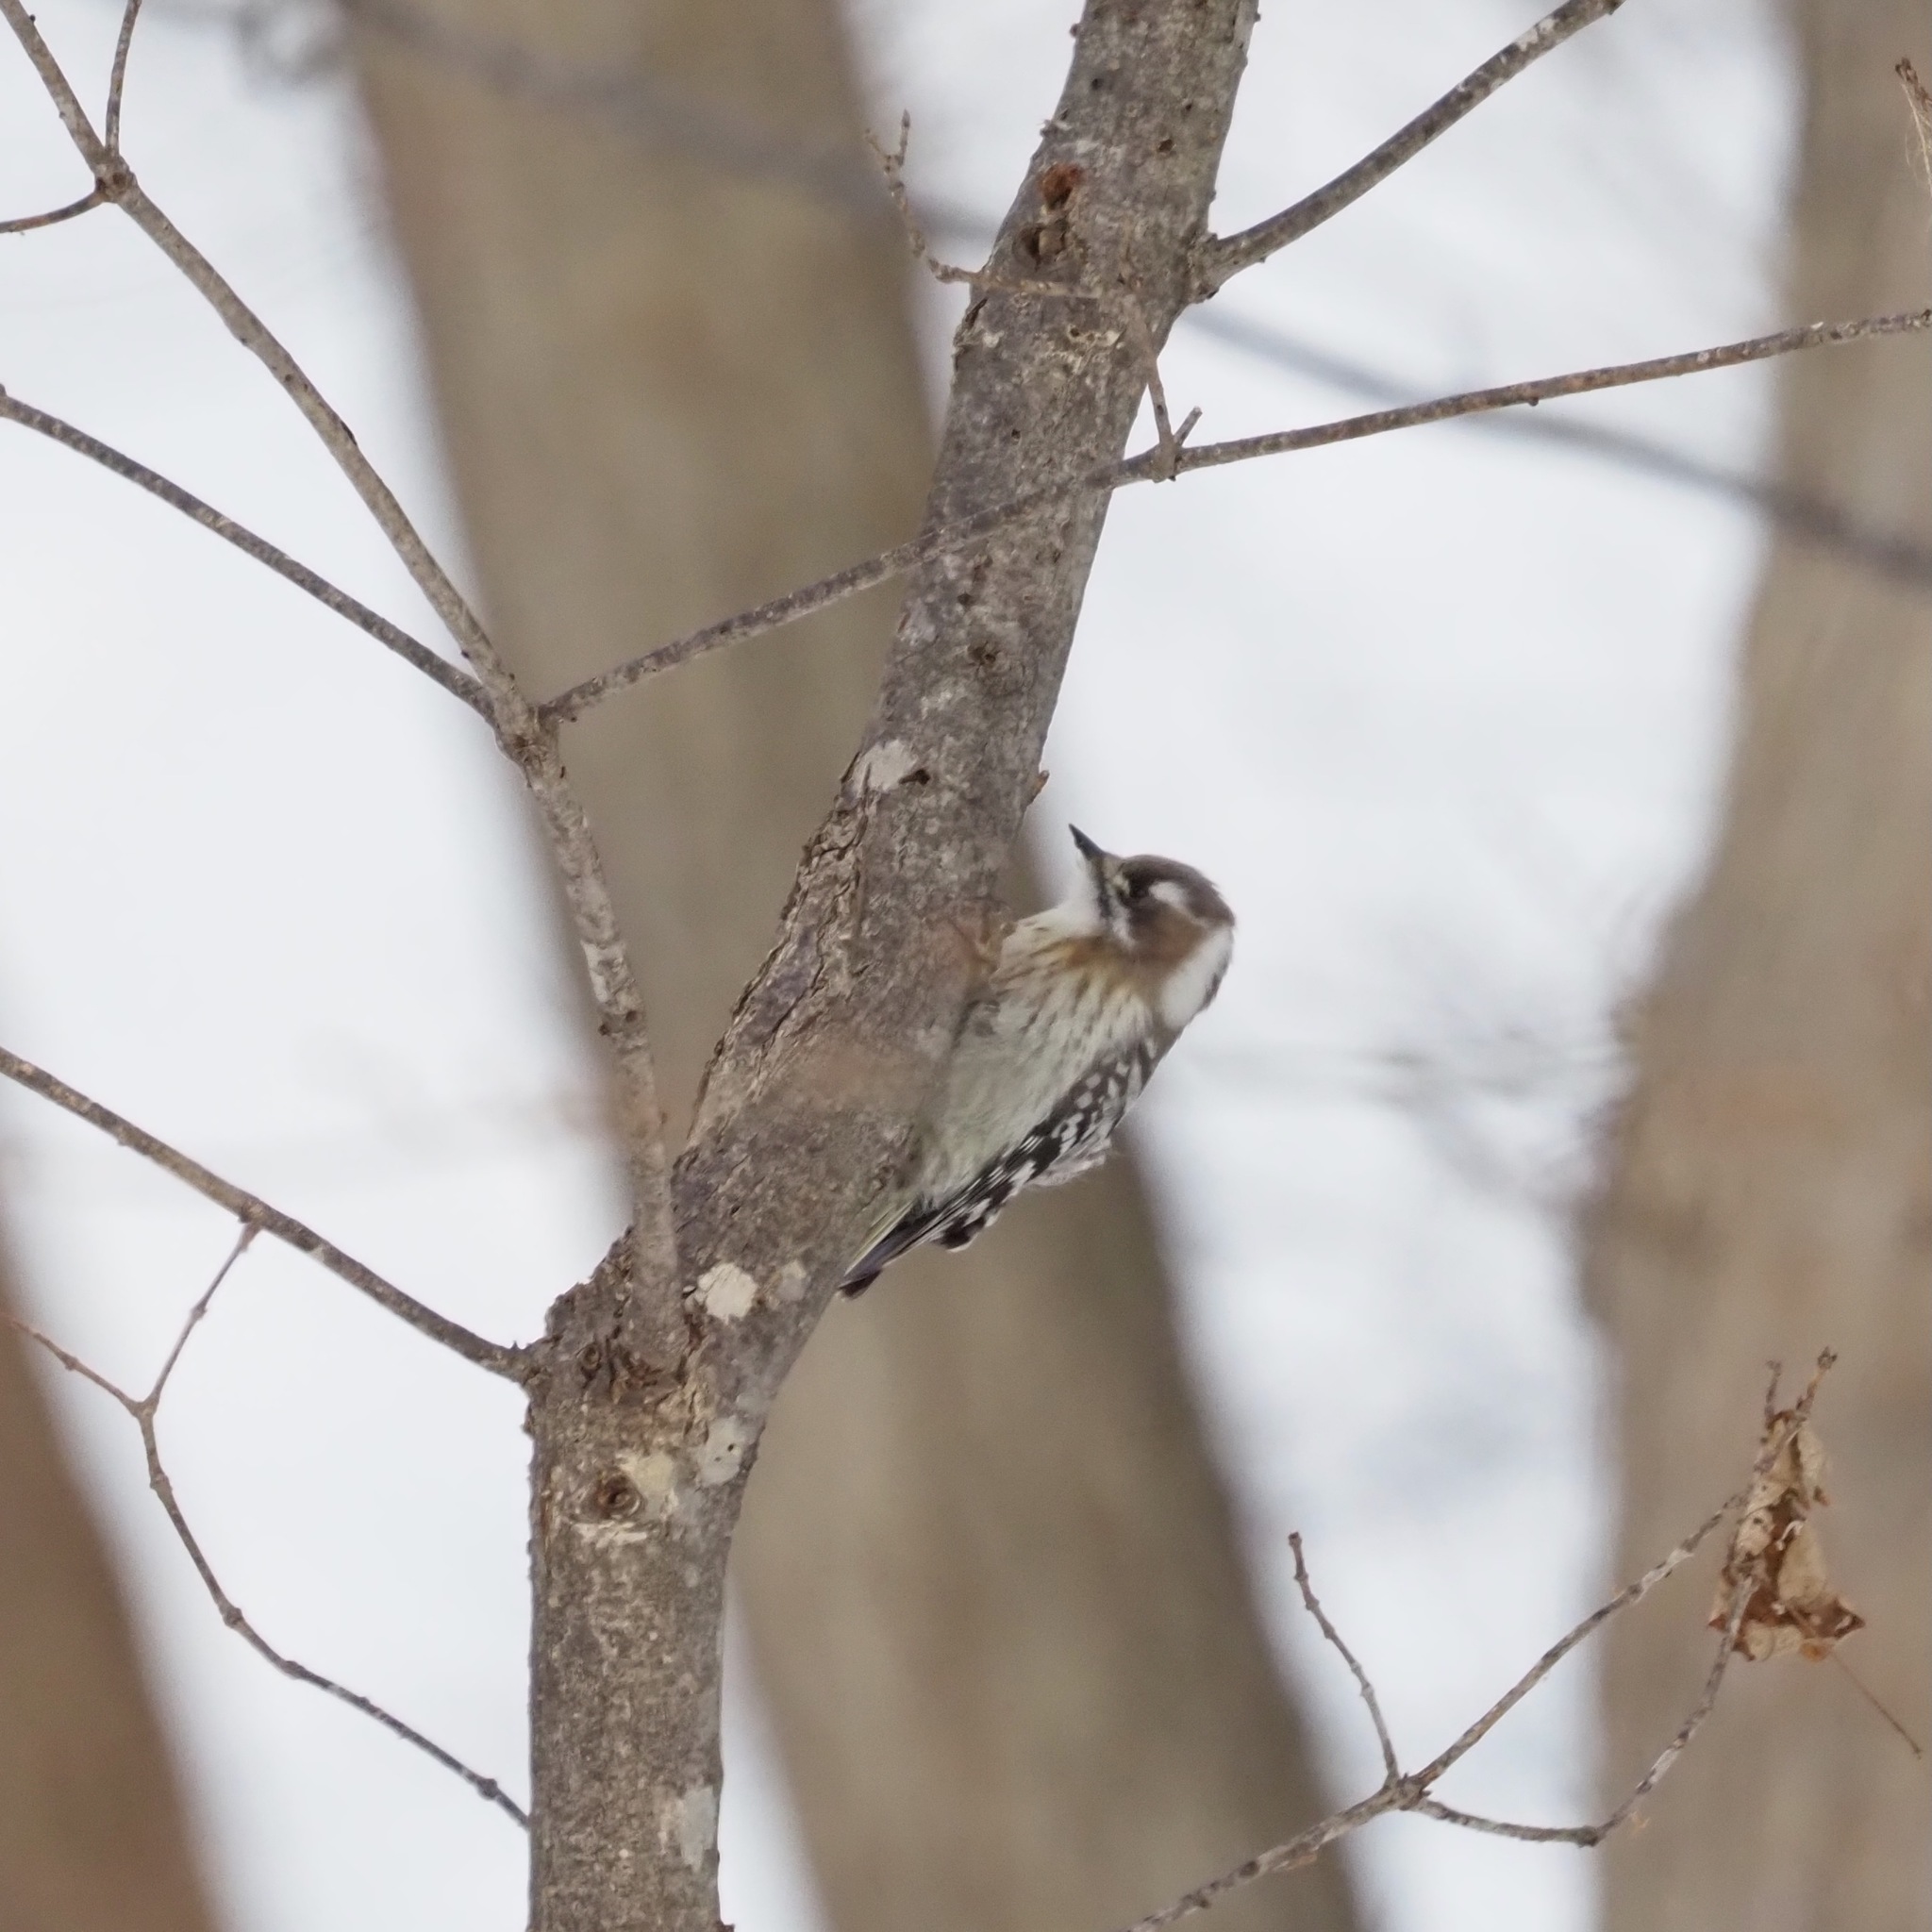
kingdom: Animalia
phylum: Chordata
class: Aves
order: Piciformes
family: Picidae
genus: Yungipicus
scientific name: Yungipicus kizuki
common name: Japanese pygmy woodpecker
